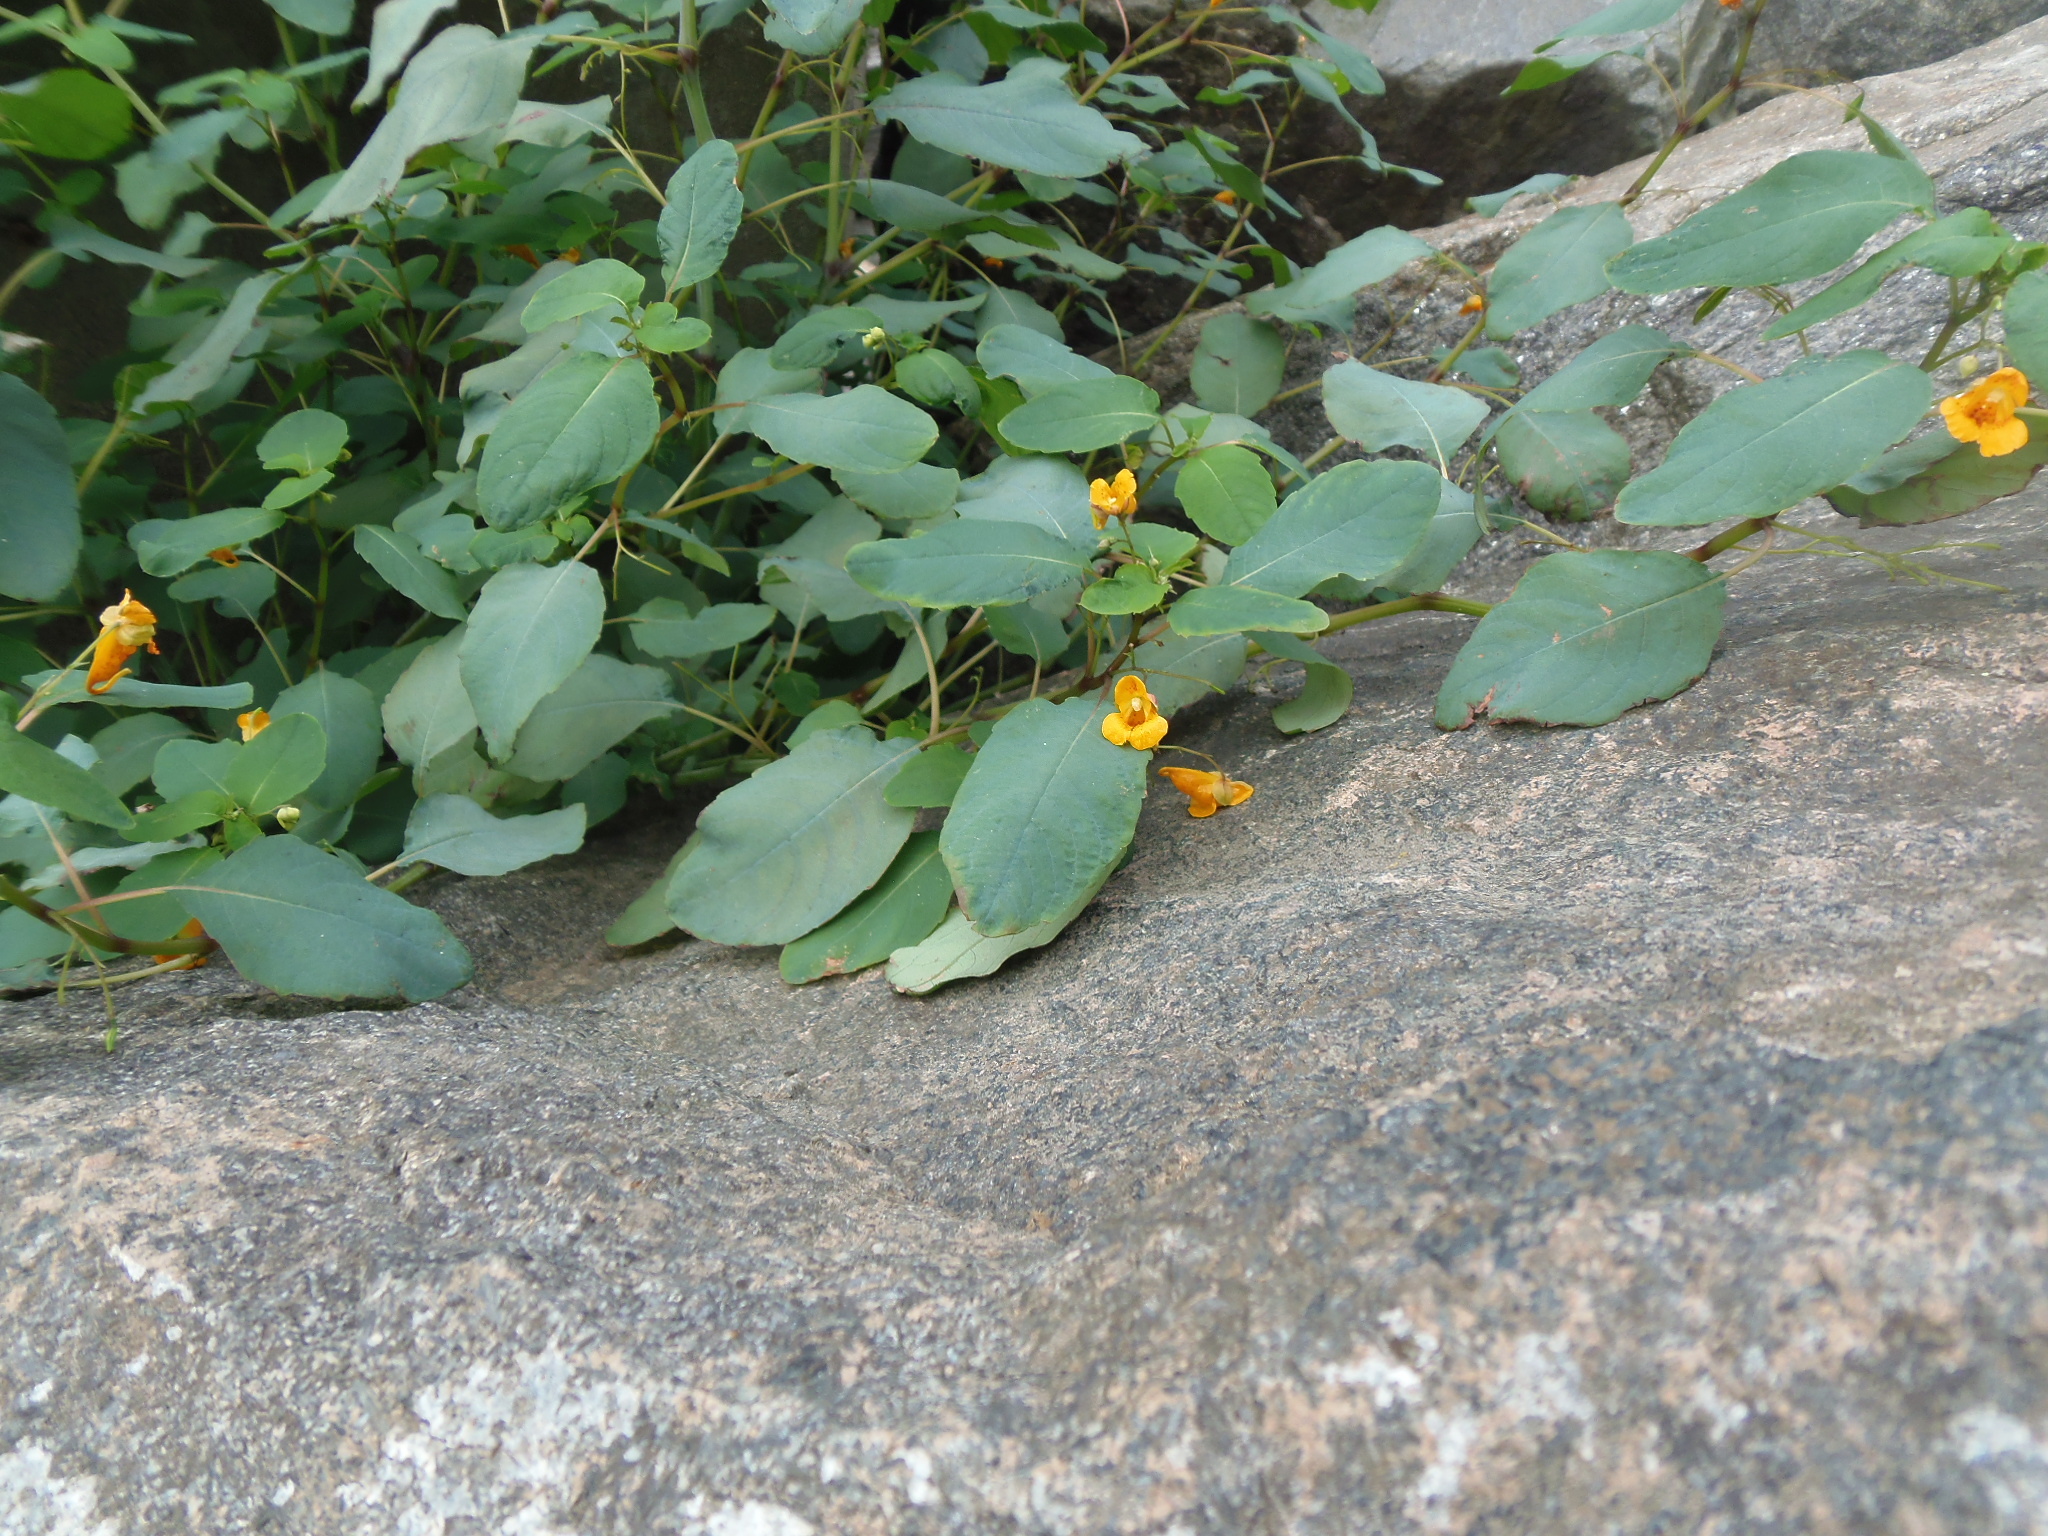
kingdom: Plantae
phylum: Tracheophyta
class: Magnoliopsida
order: Ericales
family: Balsaminaceae
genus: Impatiens
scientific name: Impatiens capensis
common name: Orange balsam
